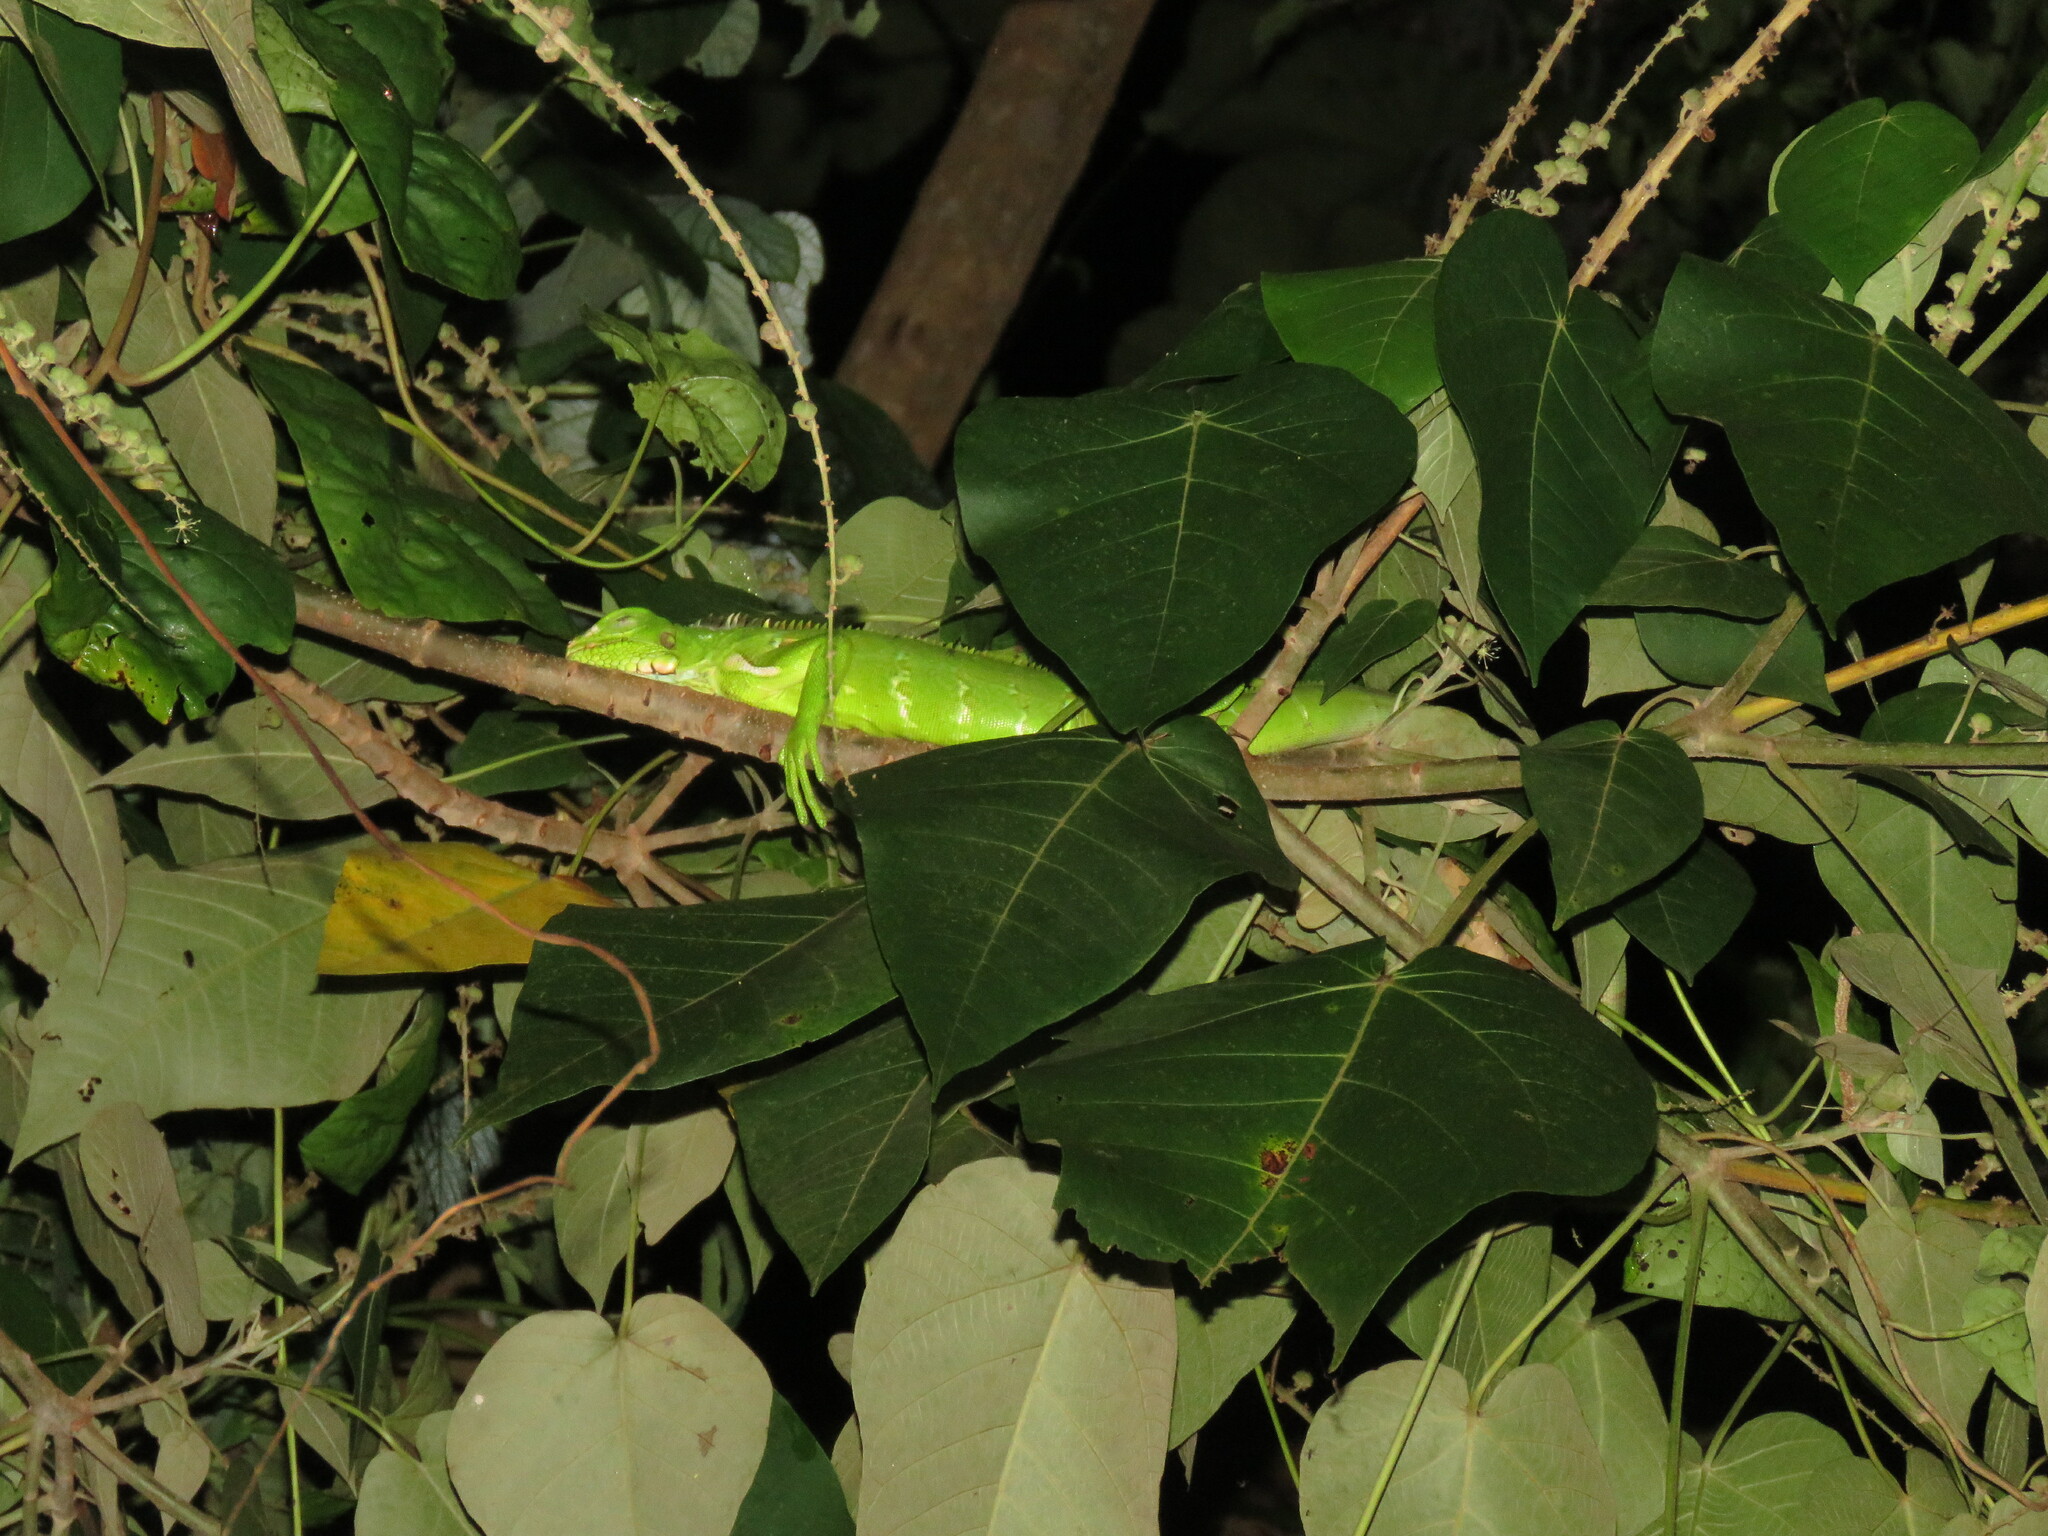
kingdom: Animalia
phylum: Chordata
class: Squamata
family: Iguanidae
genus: Iguana
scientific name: Iguana iguana
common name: Green iguana
